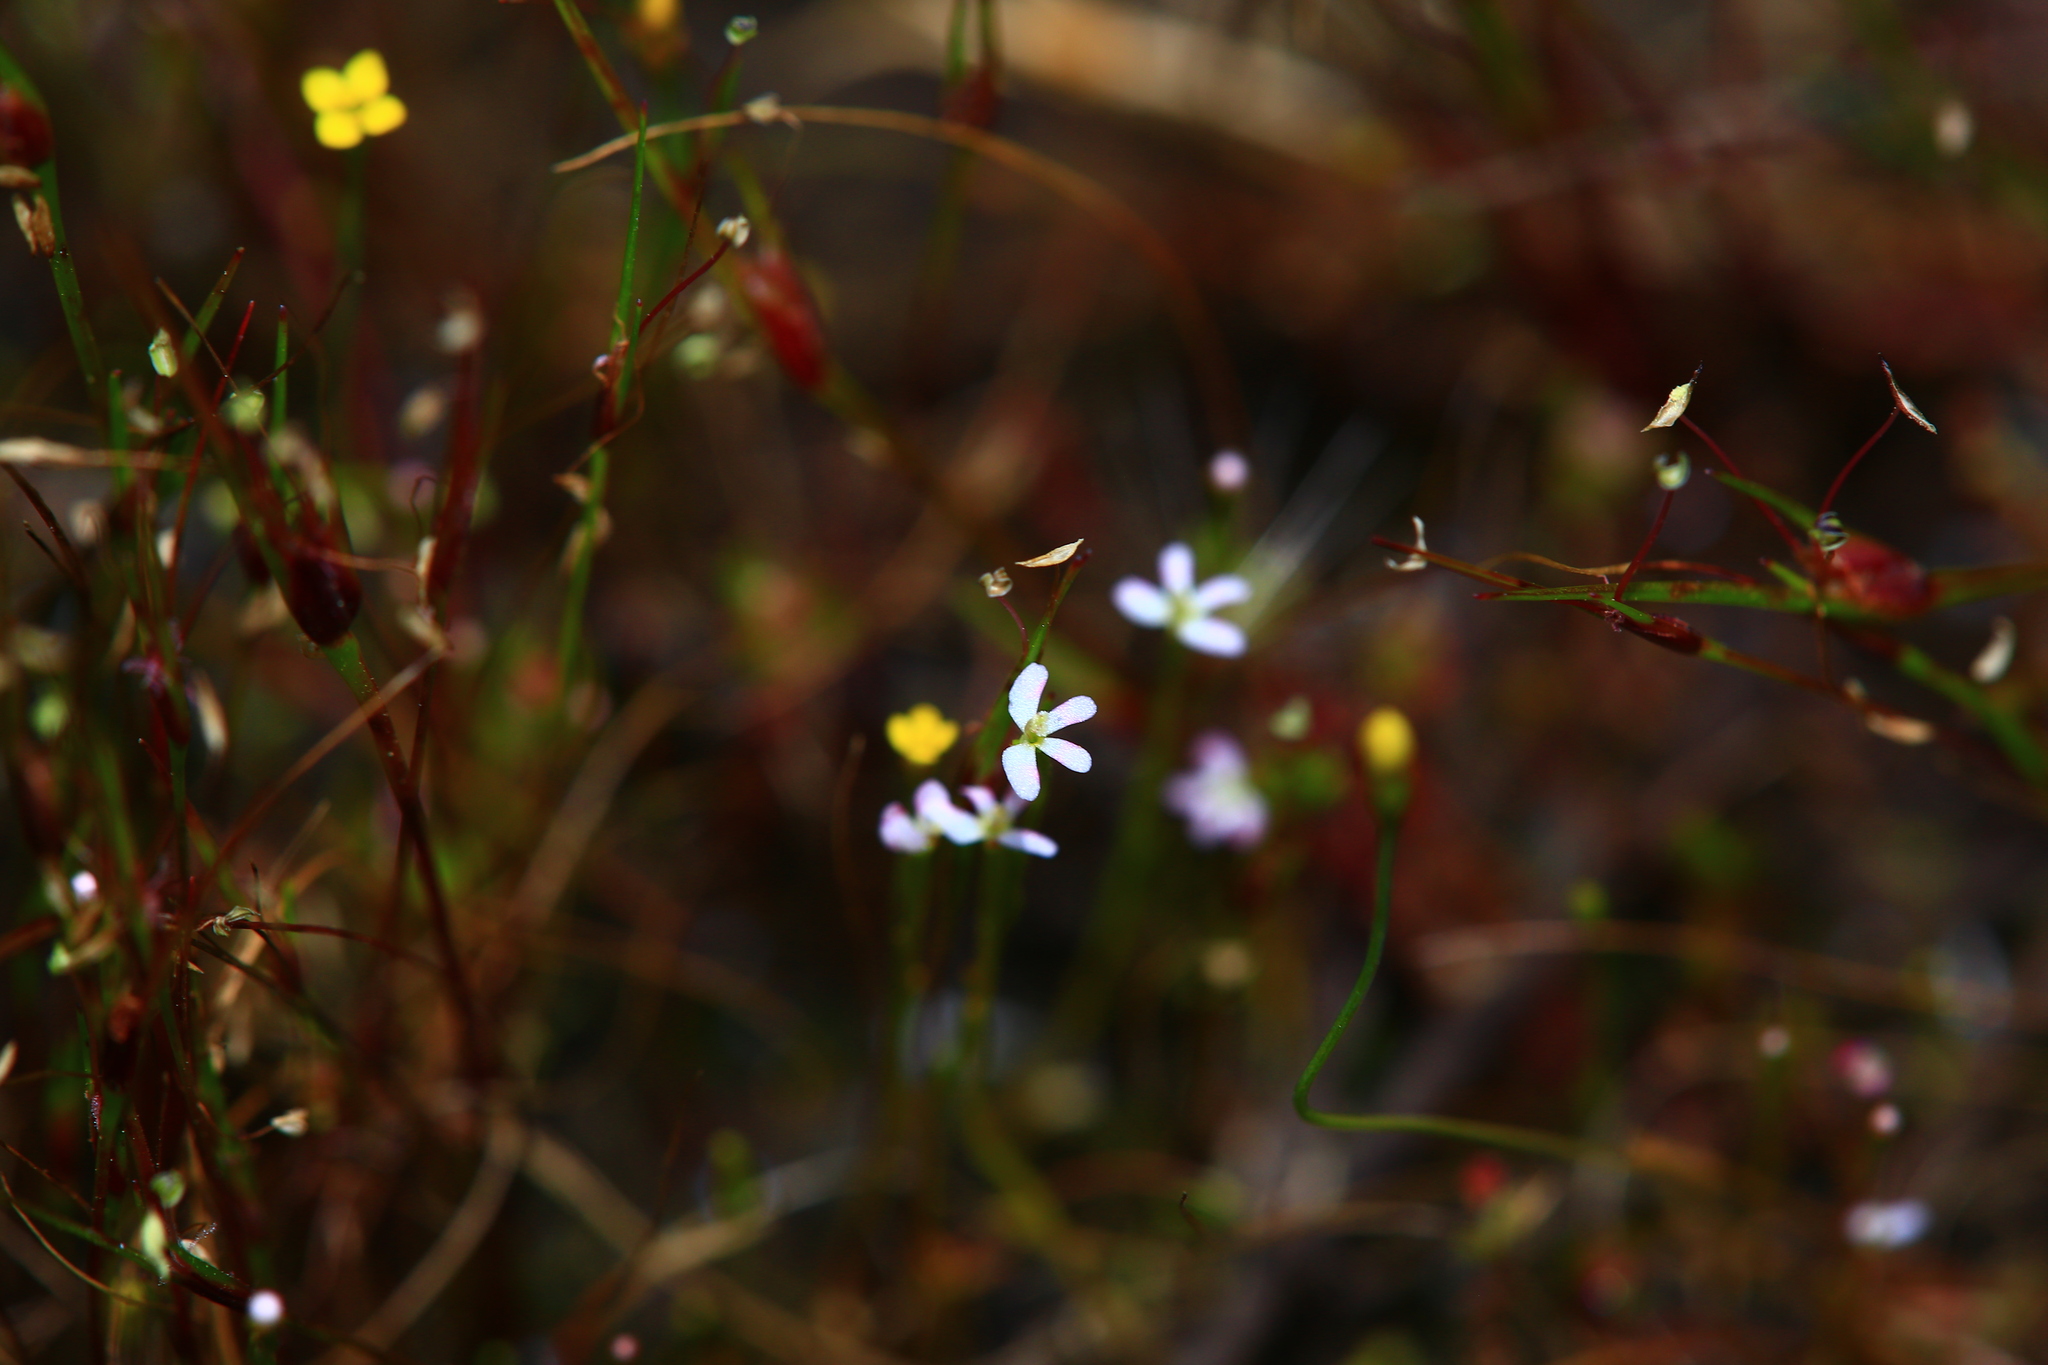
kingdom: Plantae
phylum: Tracheophyta
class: Magnoliopsida
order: Asterales
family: Stylidiaceae
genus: Stylidium
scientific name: Stylidium despectum
